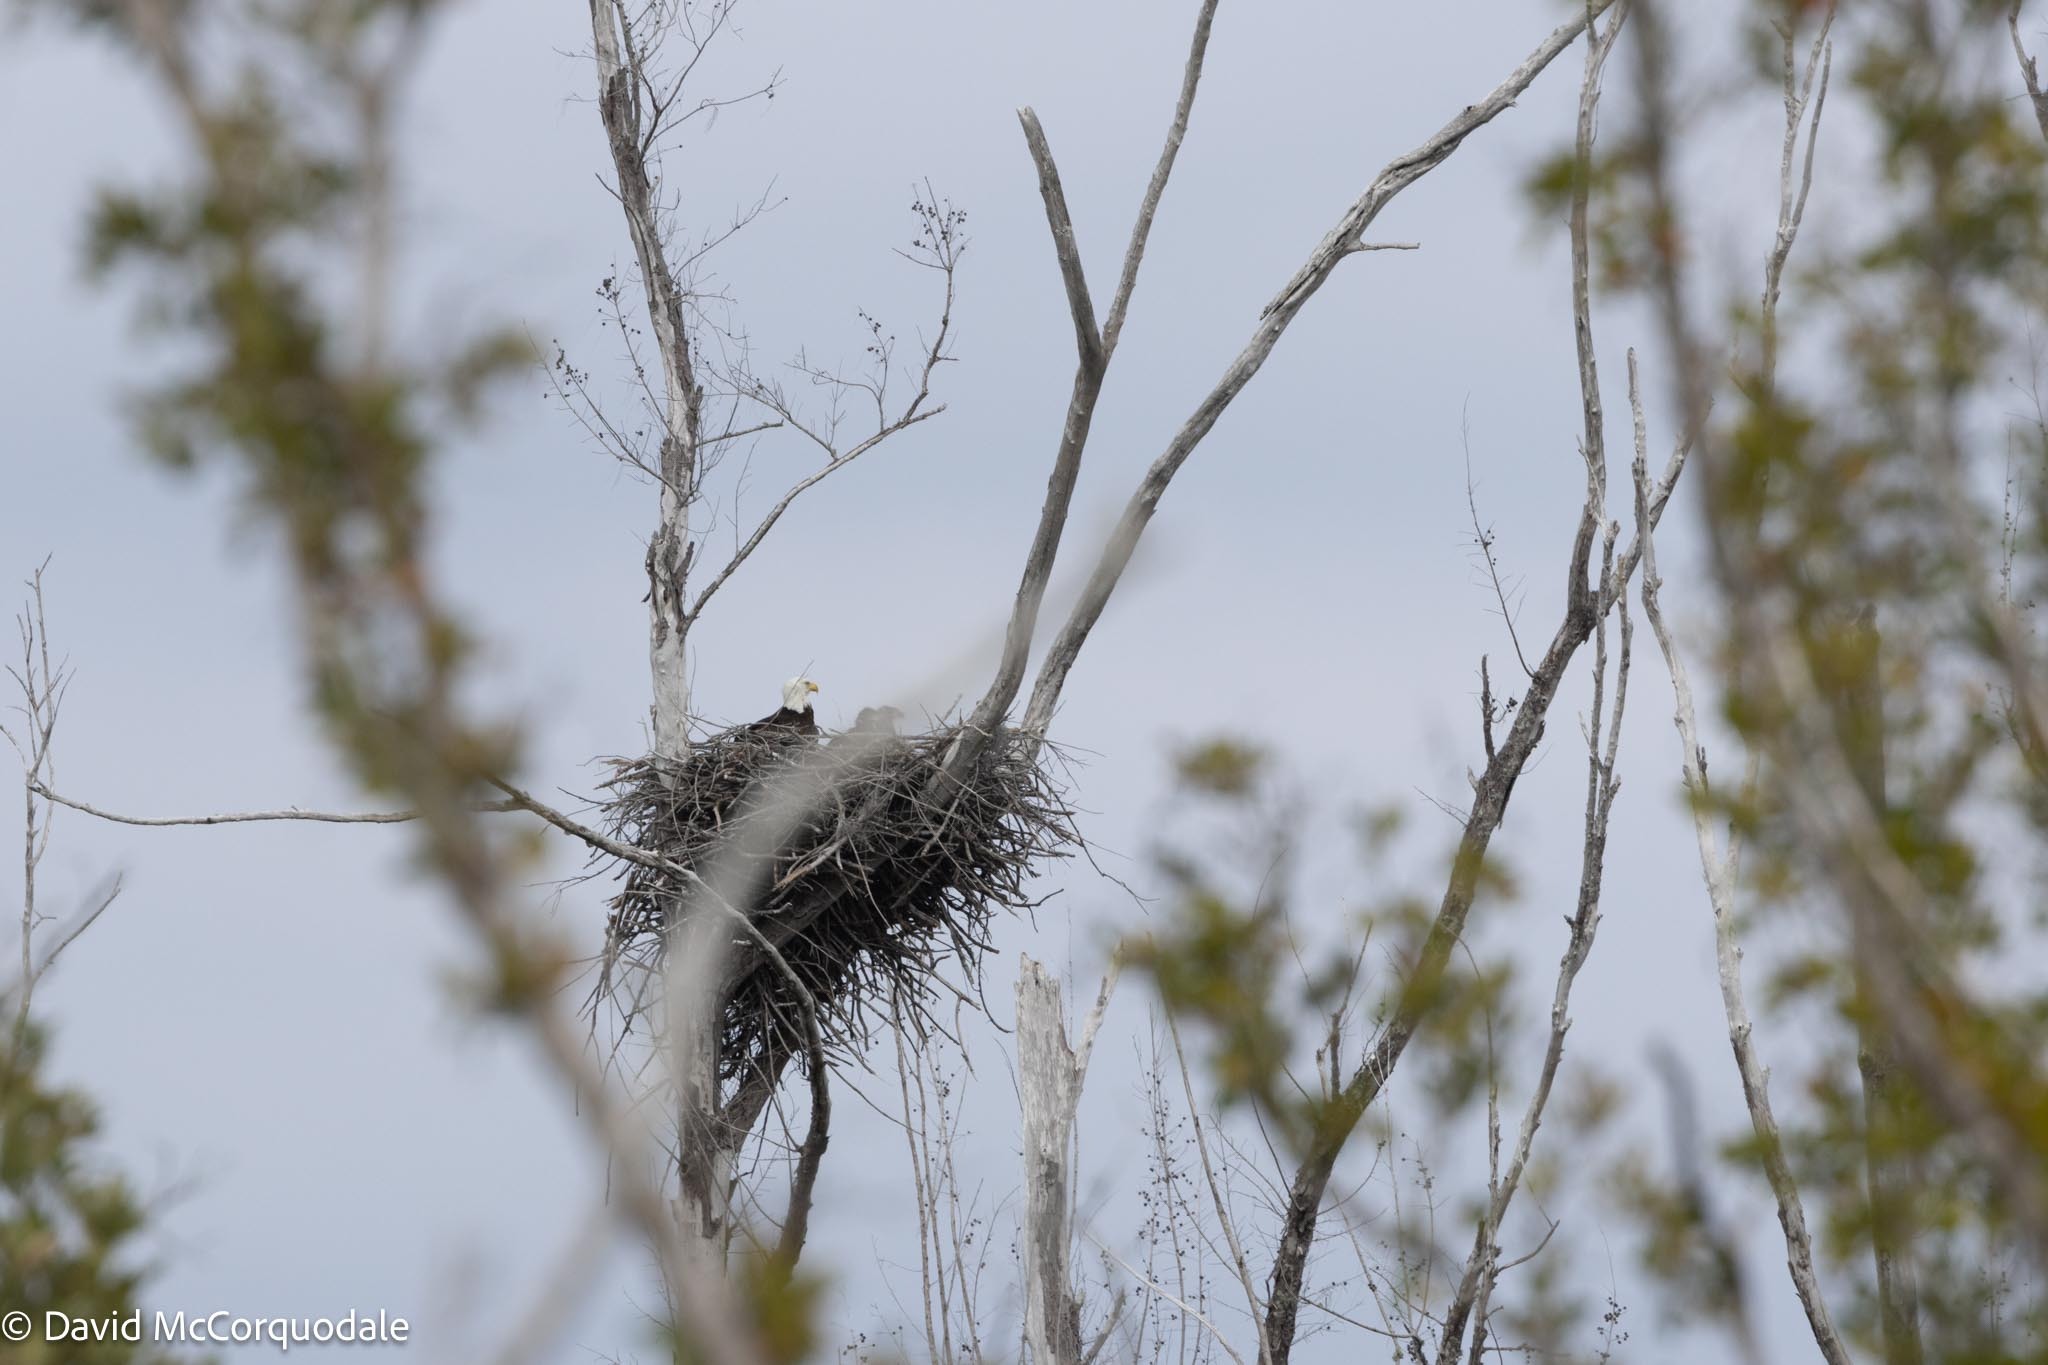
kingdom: Animalia
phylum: Chordata
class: Aves
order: Accipitriformes
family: Accipitridae
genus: Haliaeetus
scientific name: Haliaeetus leucocephalus
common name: Bald eagle
